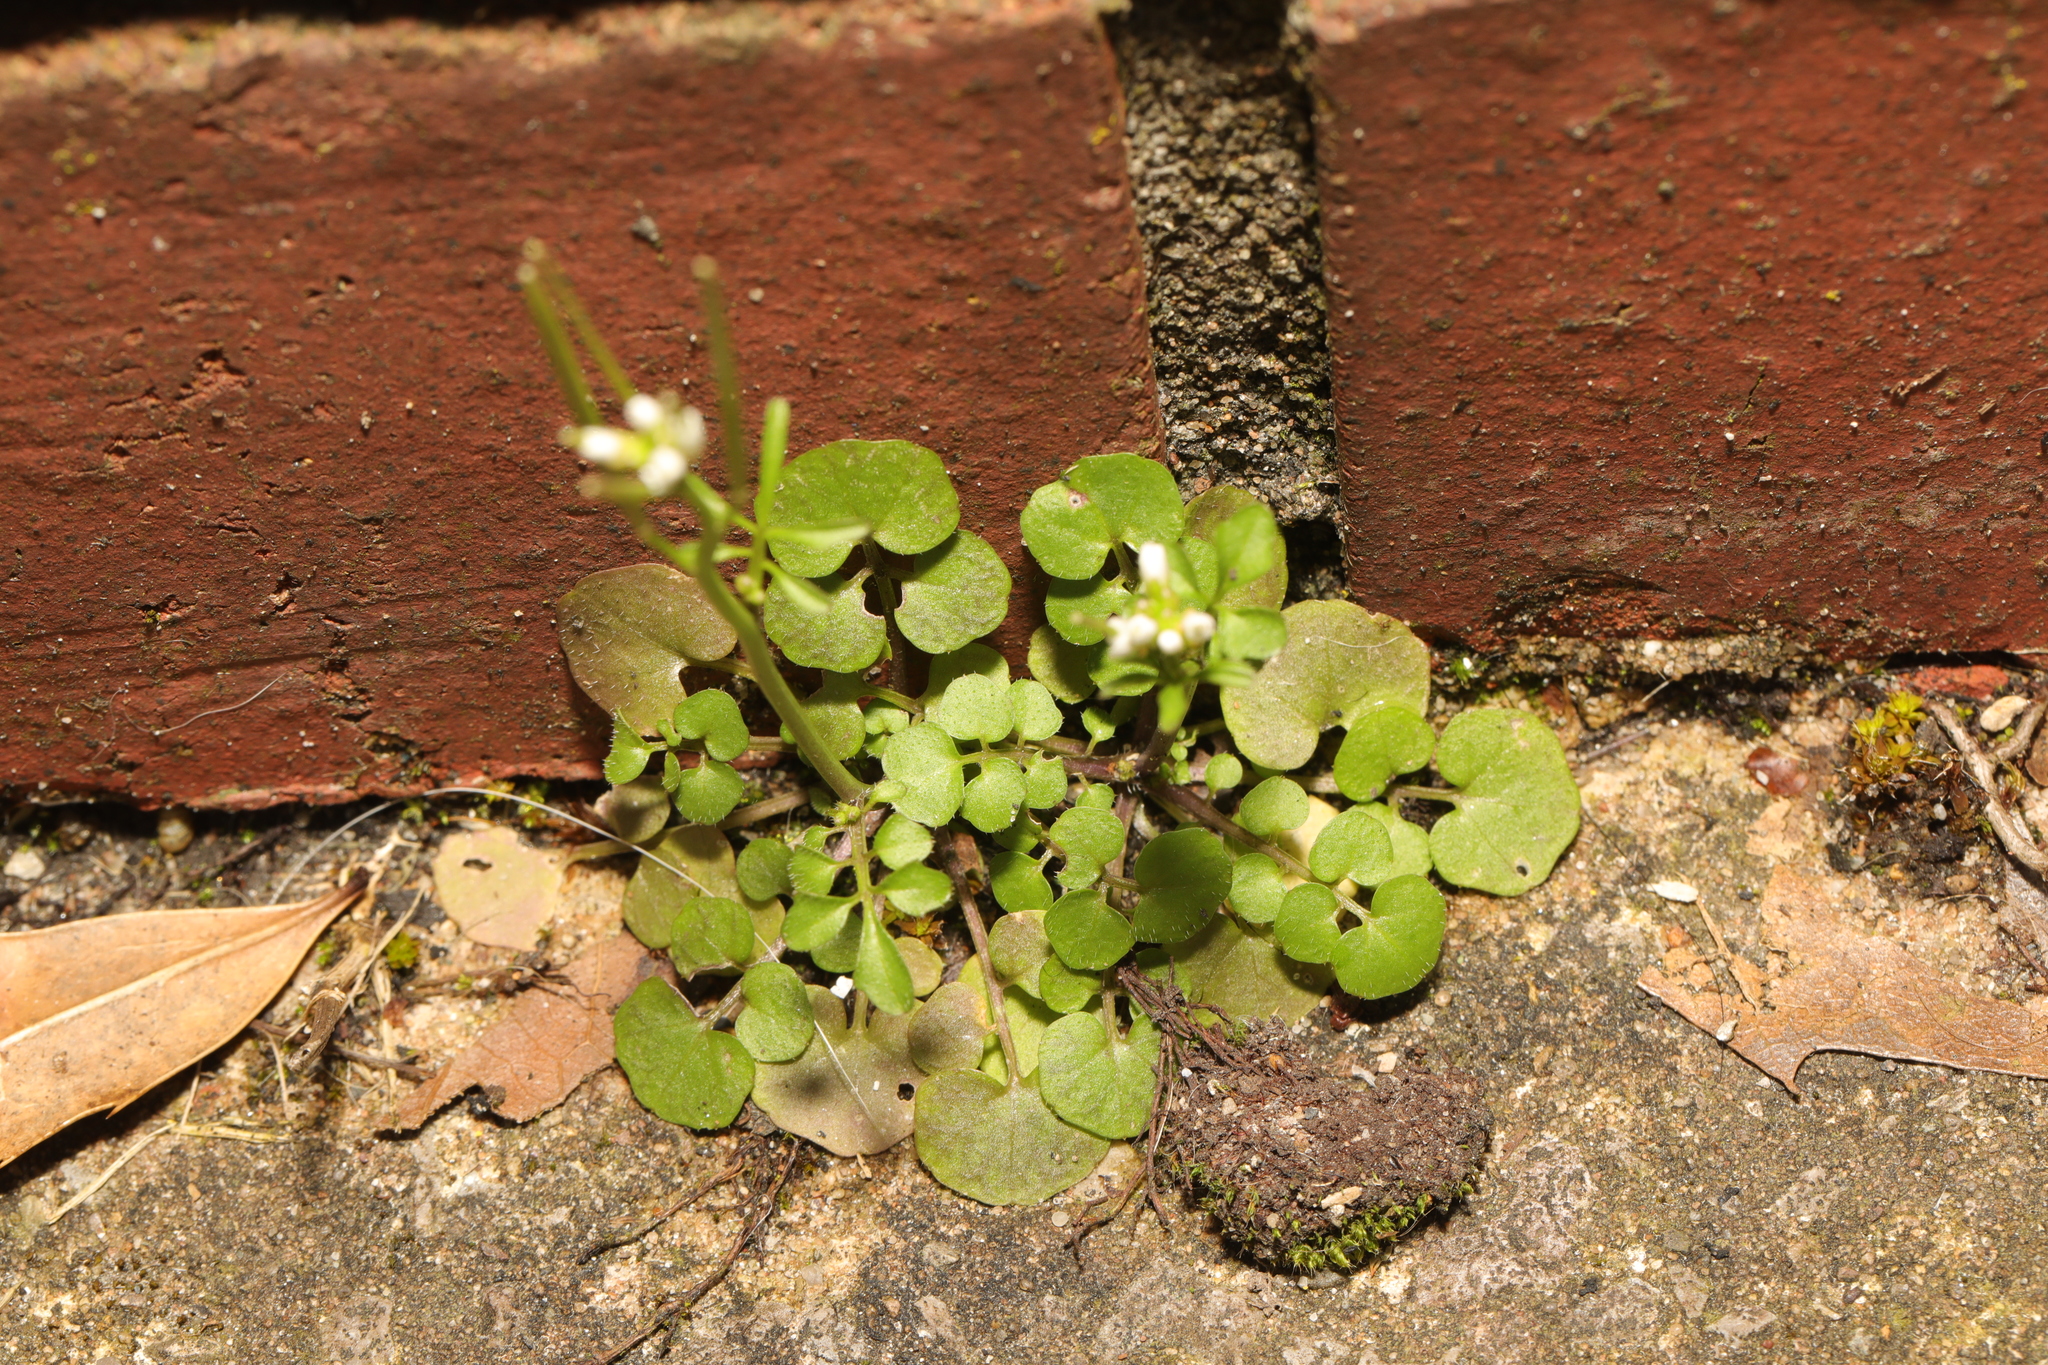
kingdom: Plantae
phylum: Tracheophyta
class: Magnoliopsida
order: Brassicales
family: Brassicaceae
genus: Cardamine
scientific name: Cardamine hirsuta
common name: Hairy bittercress
